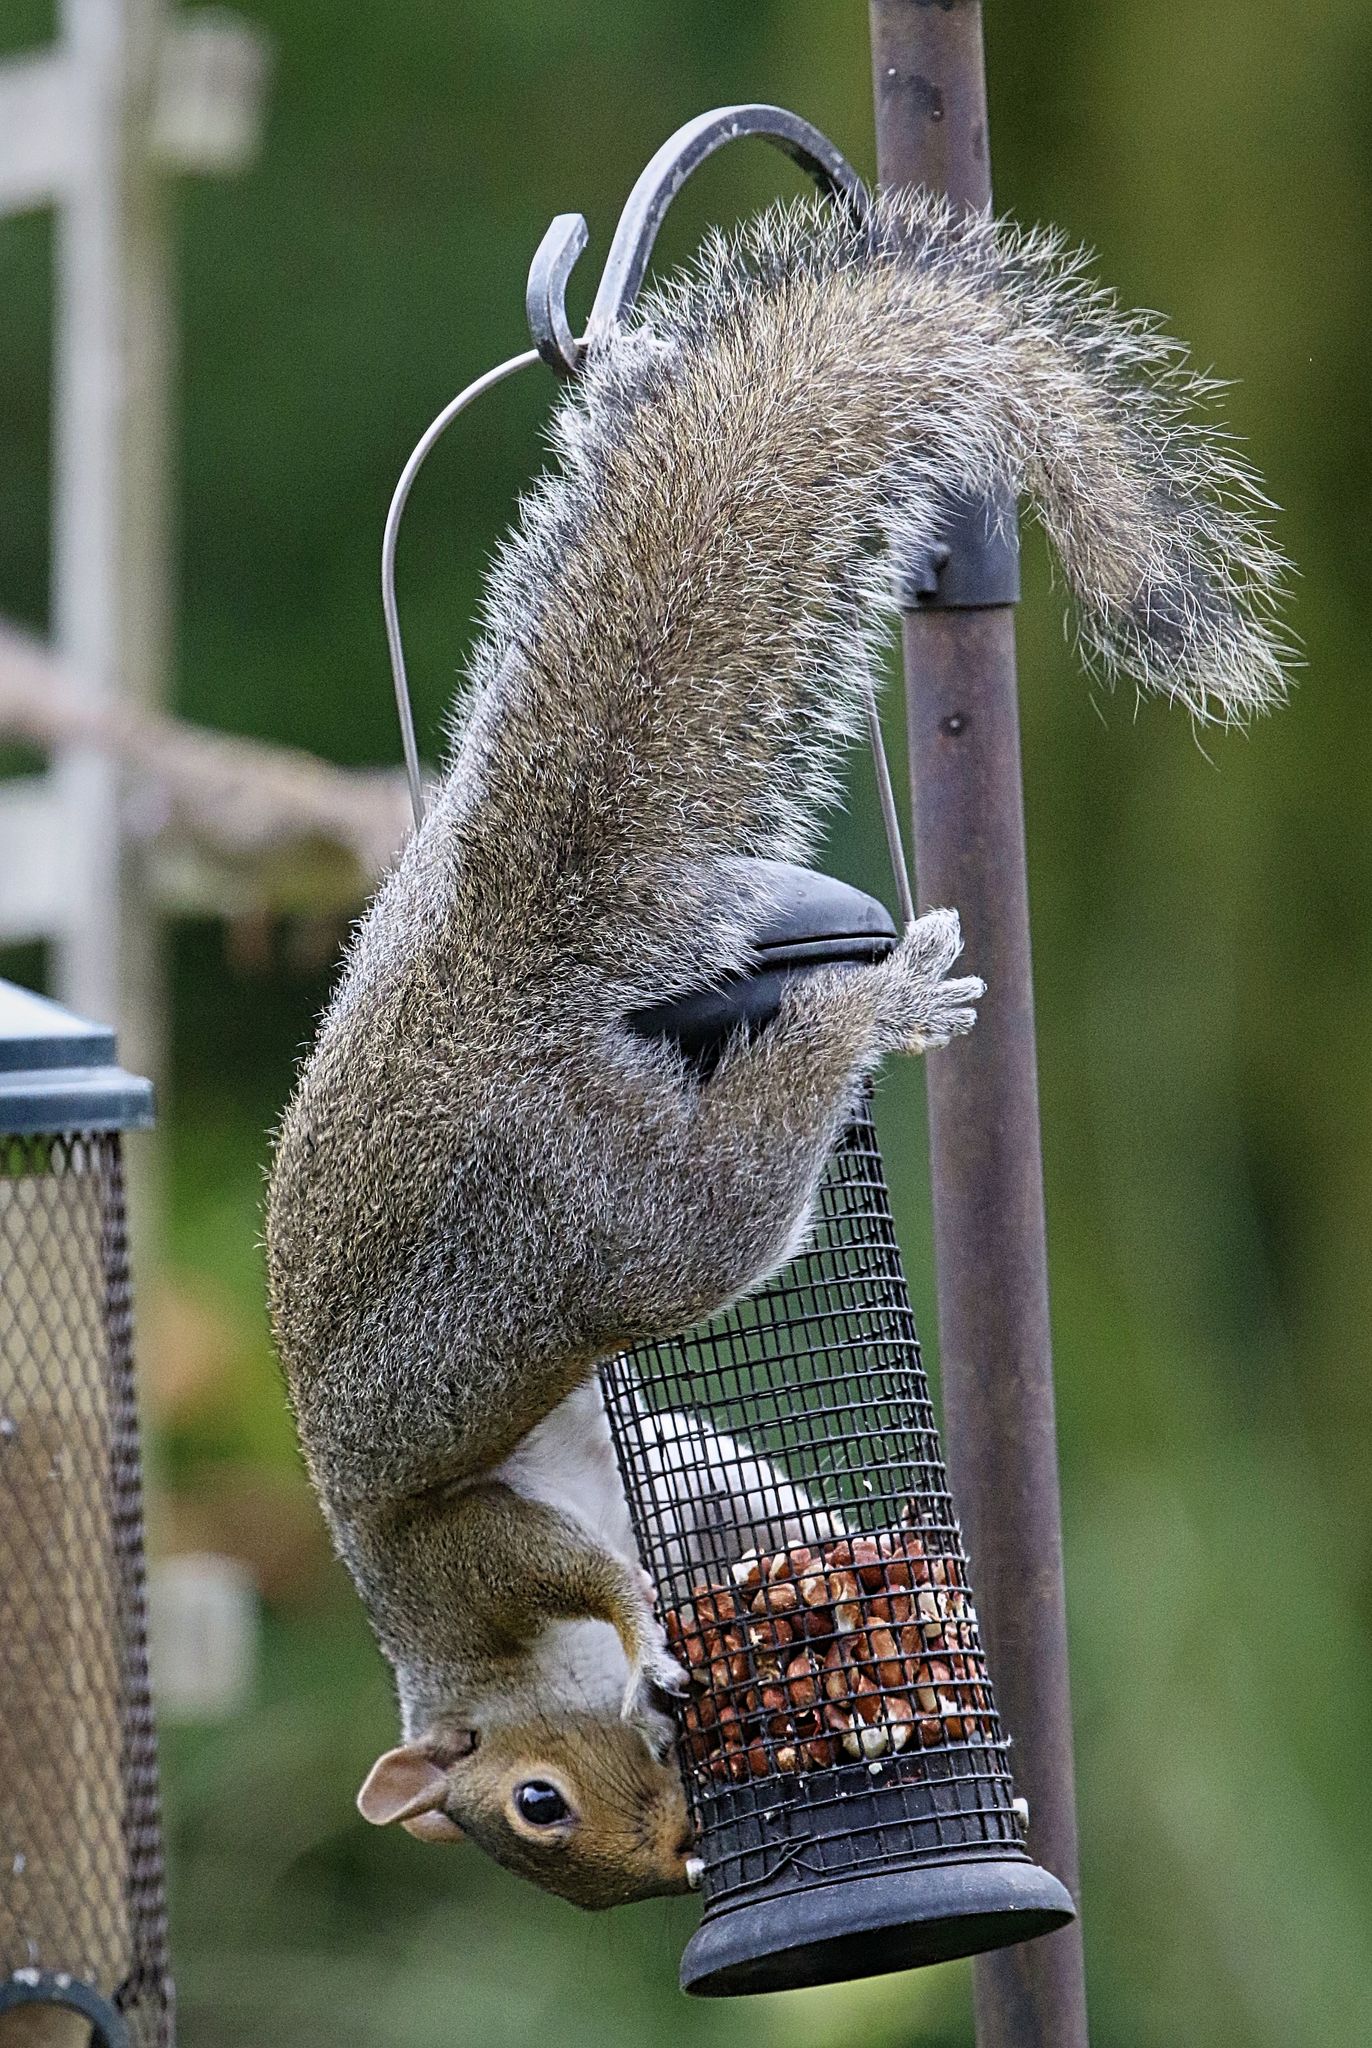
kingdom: Animalia
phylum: Chordata
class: Mammalia
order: Rodentia
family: Sciuridae
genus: Sciurus
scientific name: Sciurus carolinensis
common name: Eastern gray squirrel
